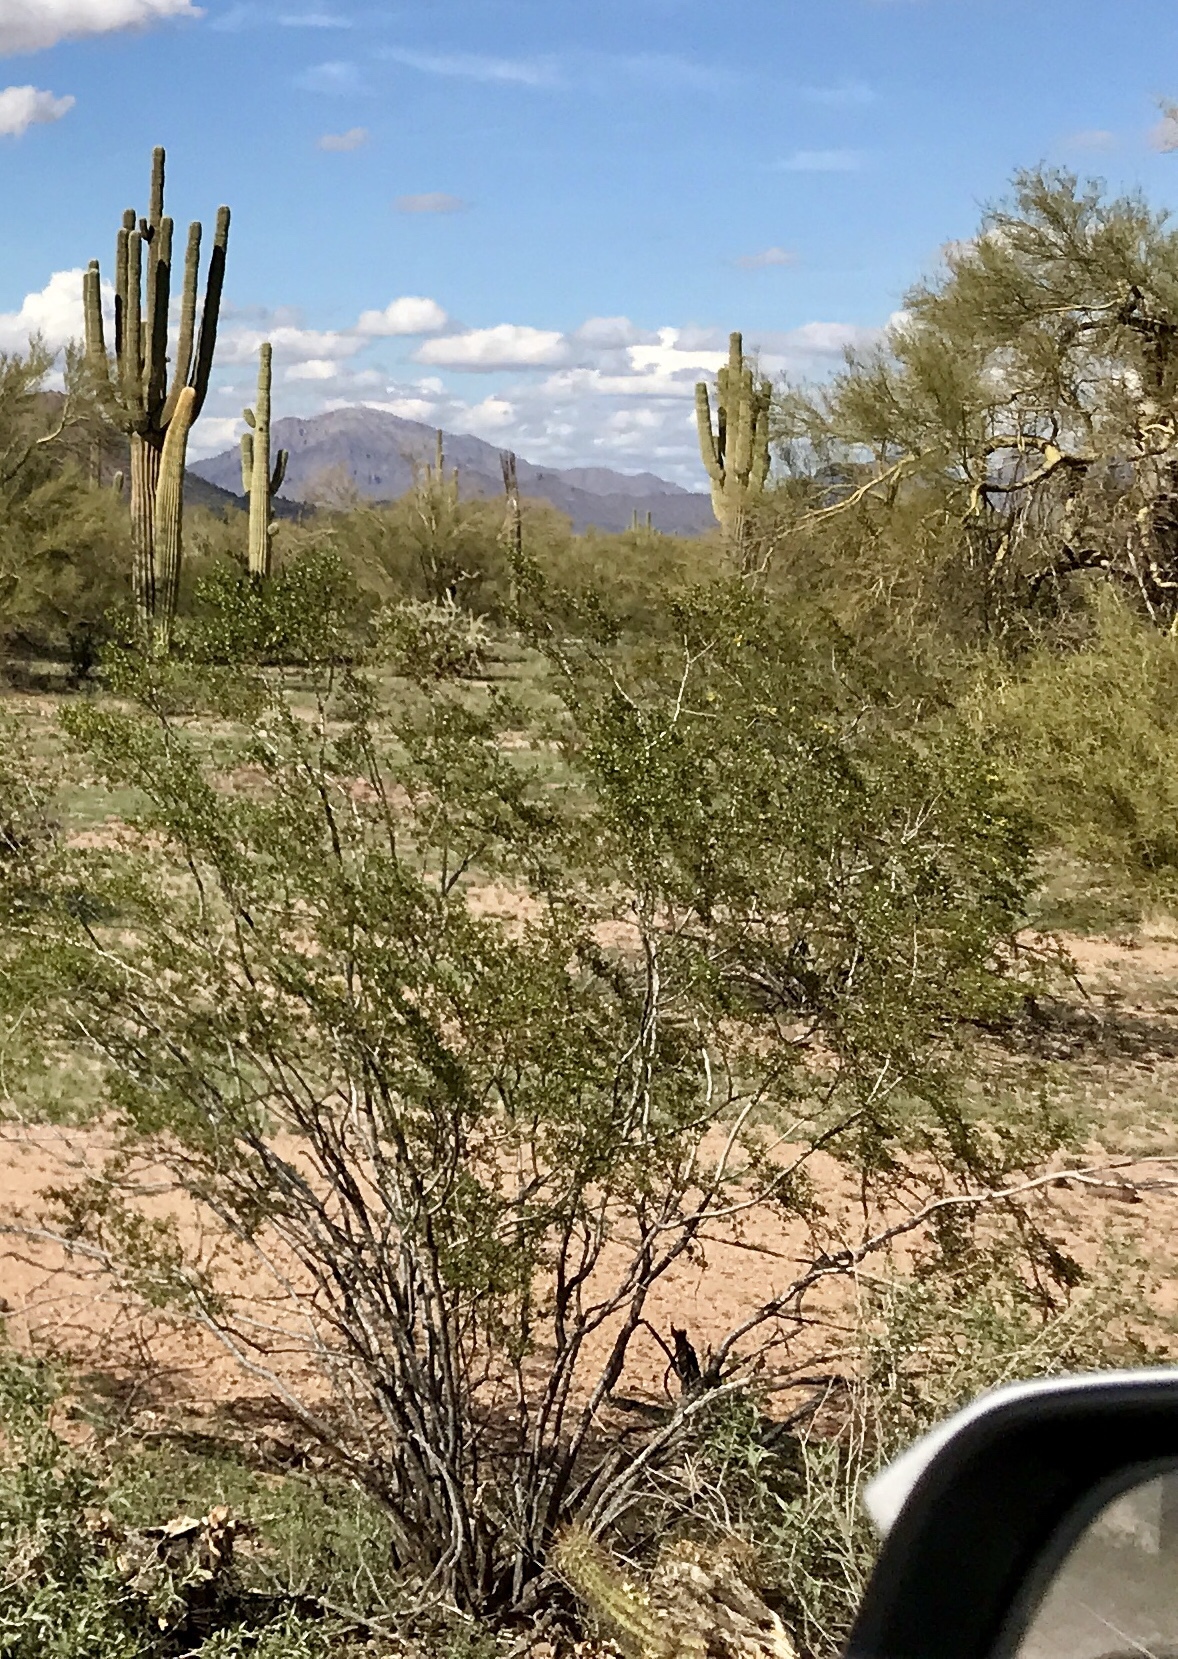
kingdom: Plantae
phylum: Tracheophyta
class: Magnoliopsida
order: Zygophyllales
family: Zygophyllaceae
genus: Larrea
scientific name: Larrea tridentata
